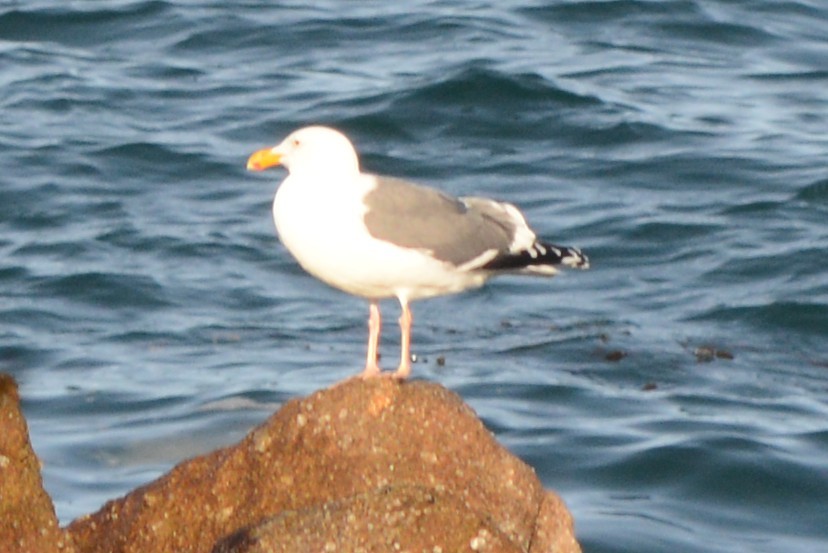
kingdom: Animalia
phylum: Chordata
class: Aves
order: Charadriiformes
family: Laridae
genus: Larus
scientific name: Larus occidentalis
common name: Western gull
